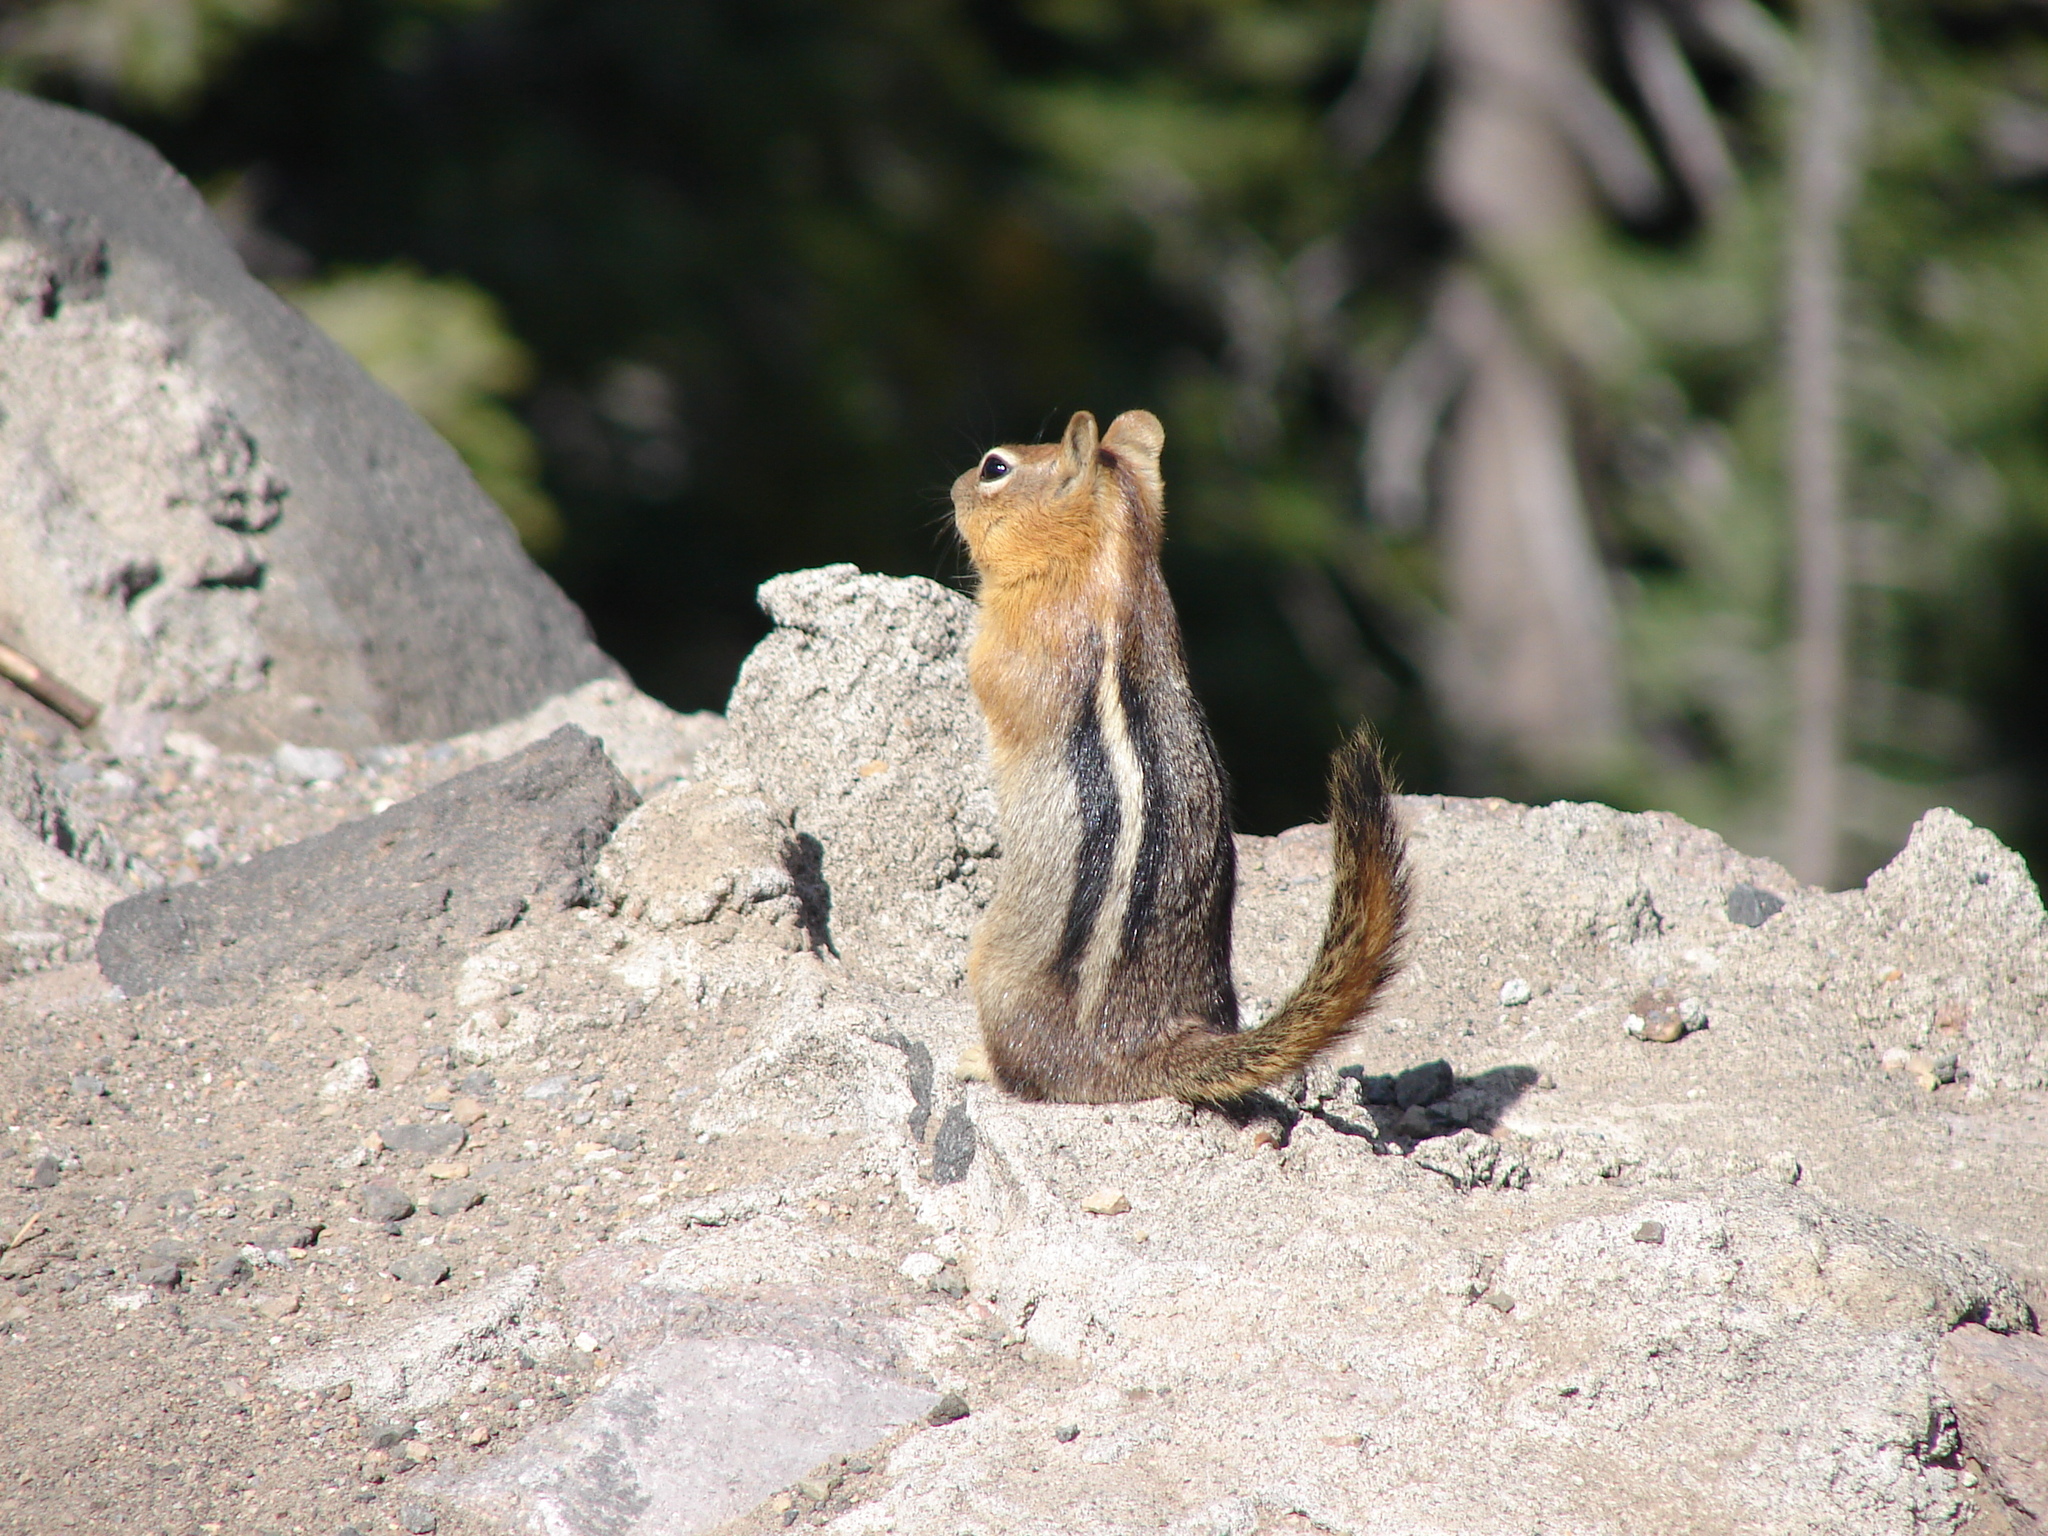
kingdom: Animalia
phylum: Chordata
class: Mammalia
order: Rodentia
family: Sciuridae
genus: Callospermophilus
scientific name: Callospermophilus lateralis
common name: Golden-mantled ground squirrel
